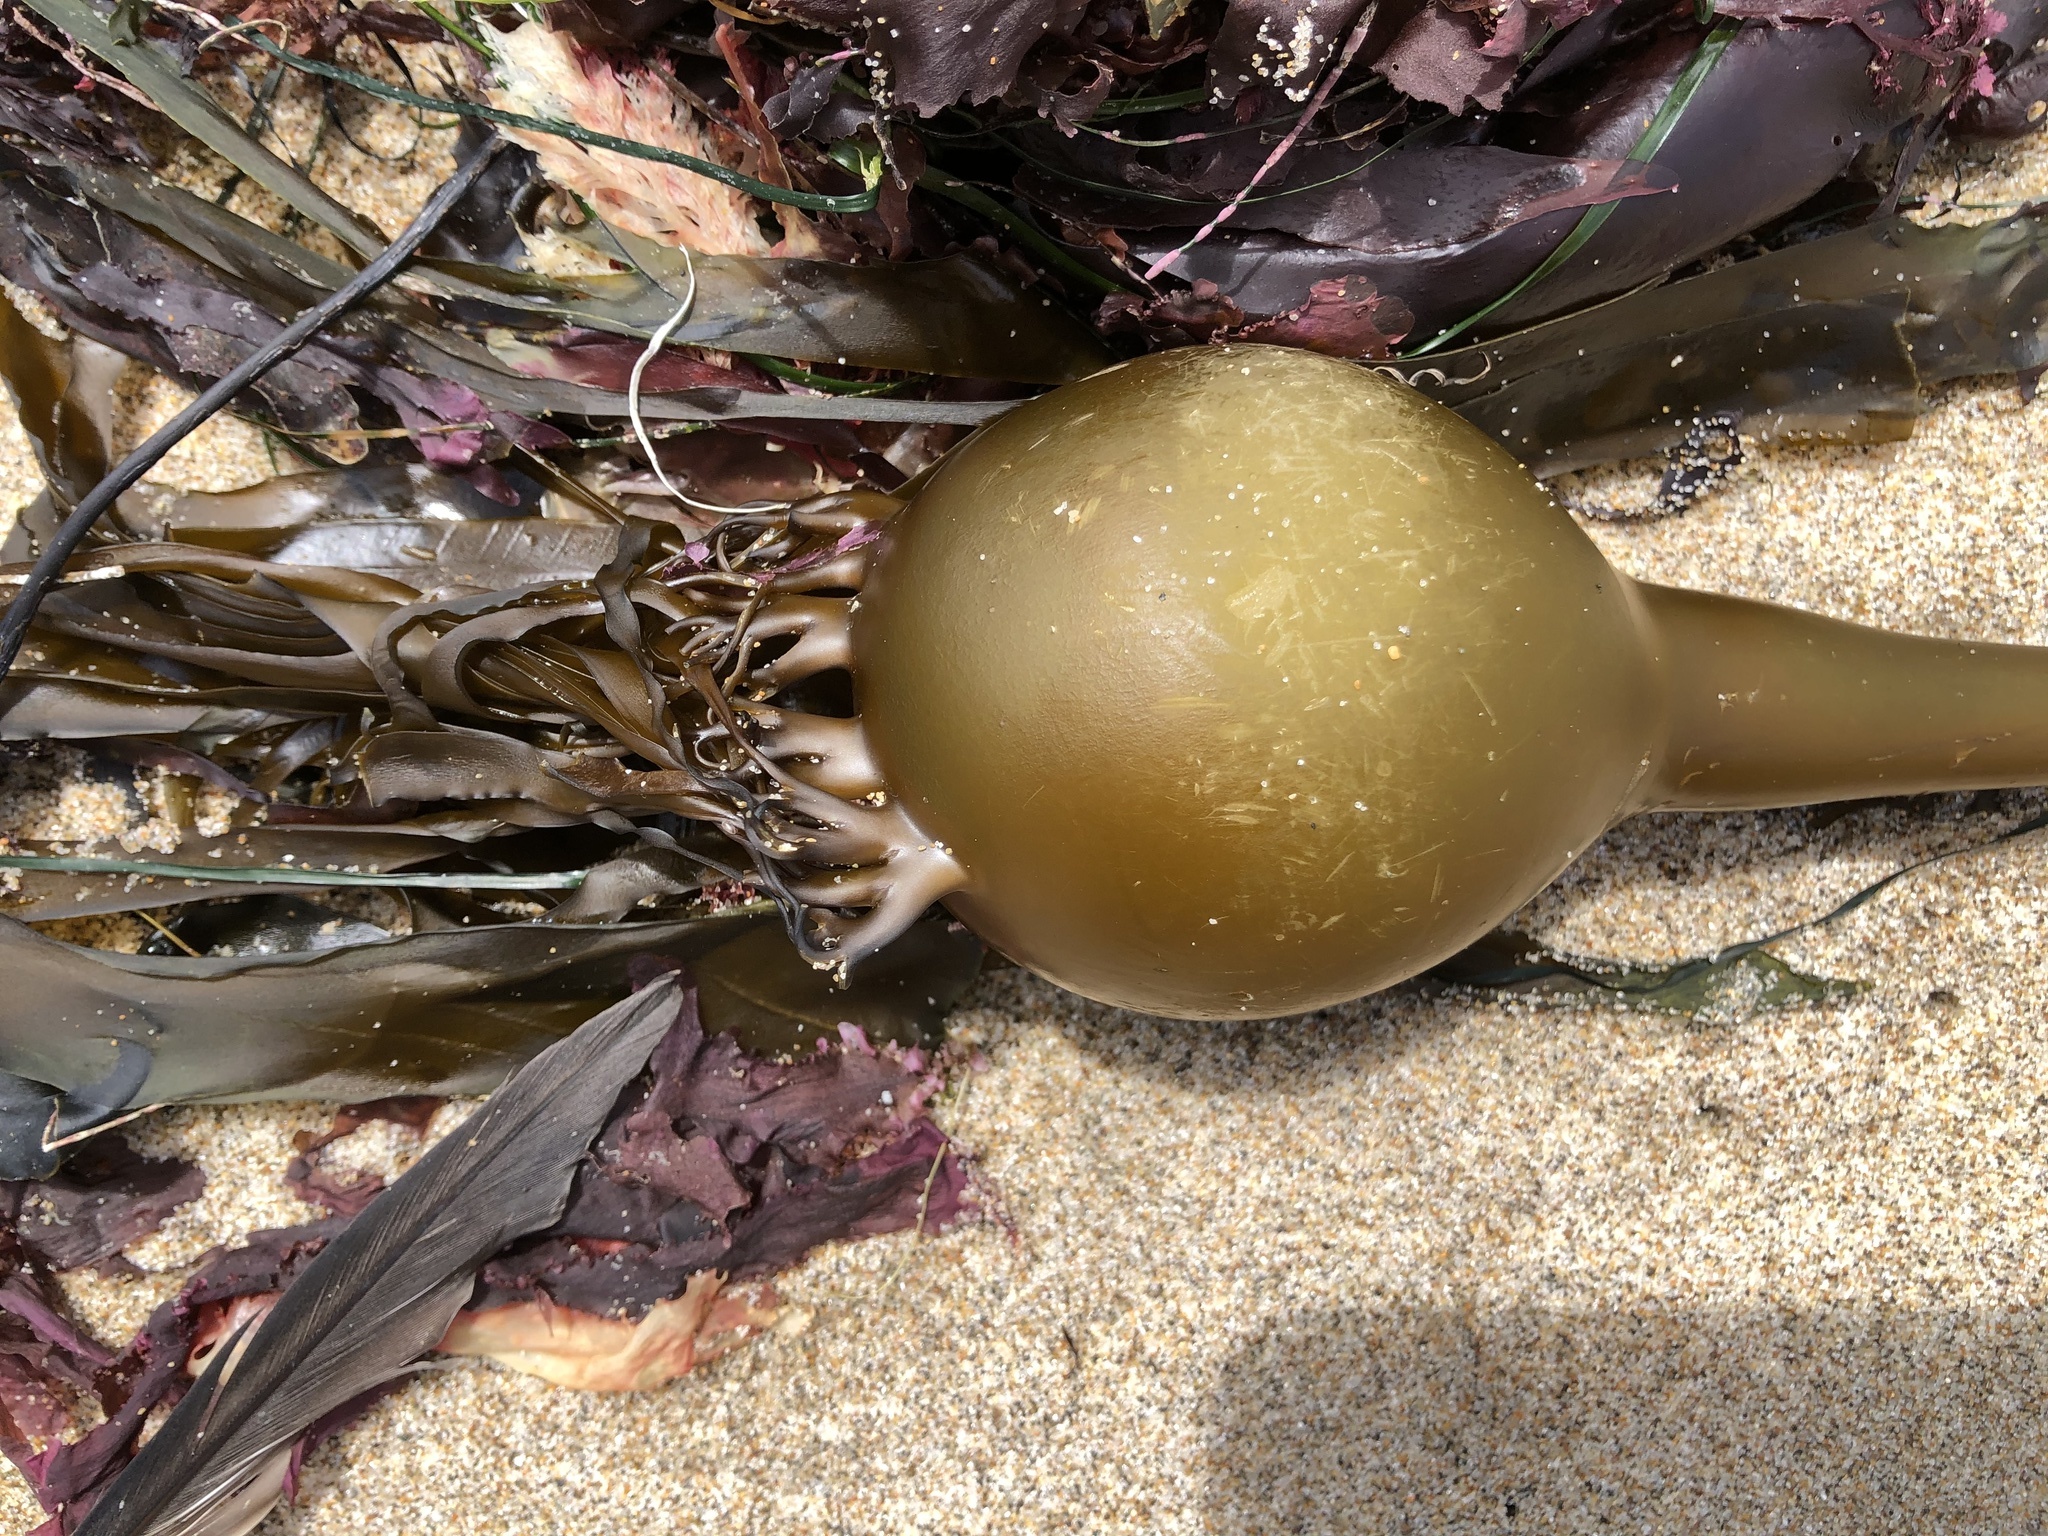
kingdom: Chromista
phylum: Ochrophyta
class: Phaeophyceae
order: Laminariales
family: Laminariaceae
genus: Nereocystis
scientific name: Nereocystis luetkeana
